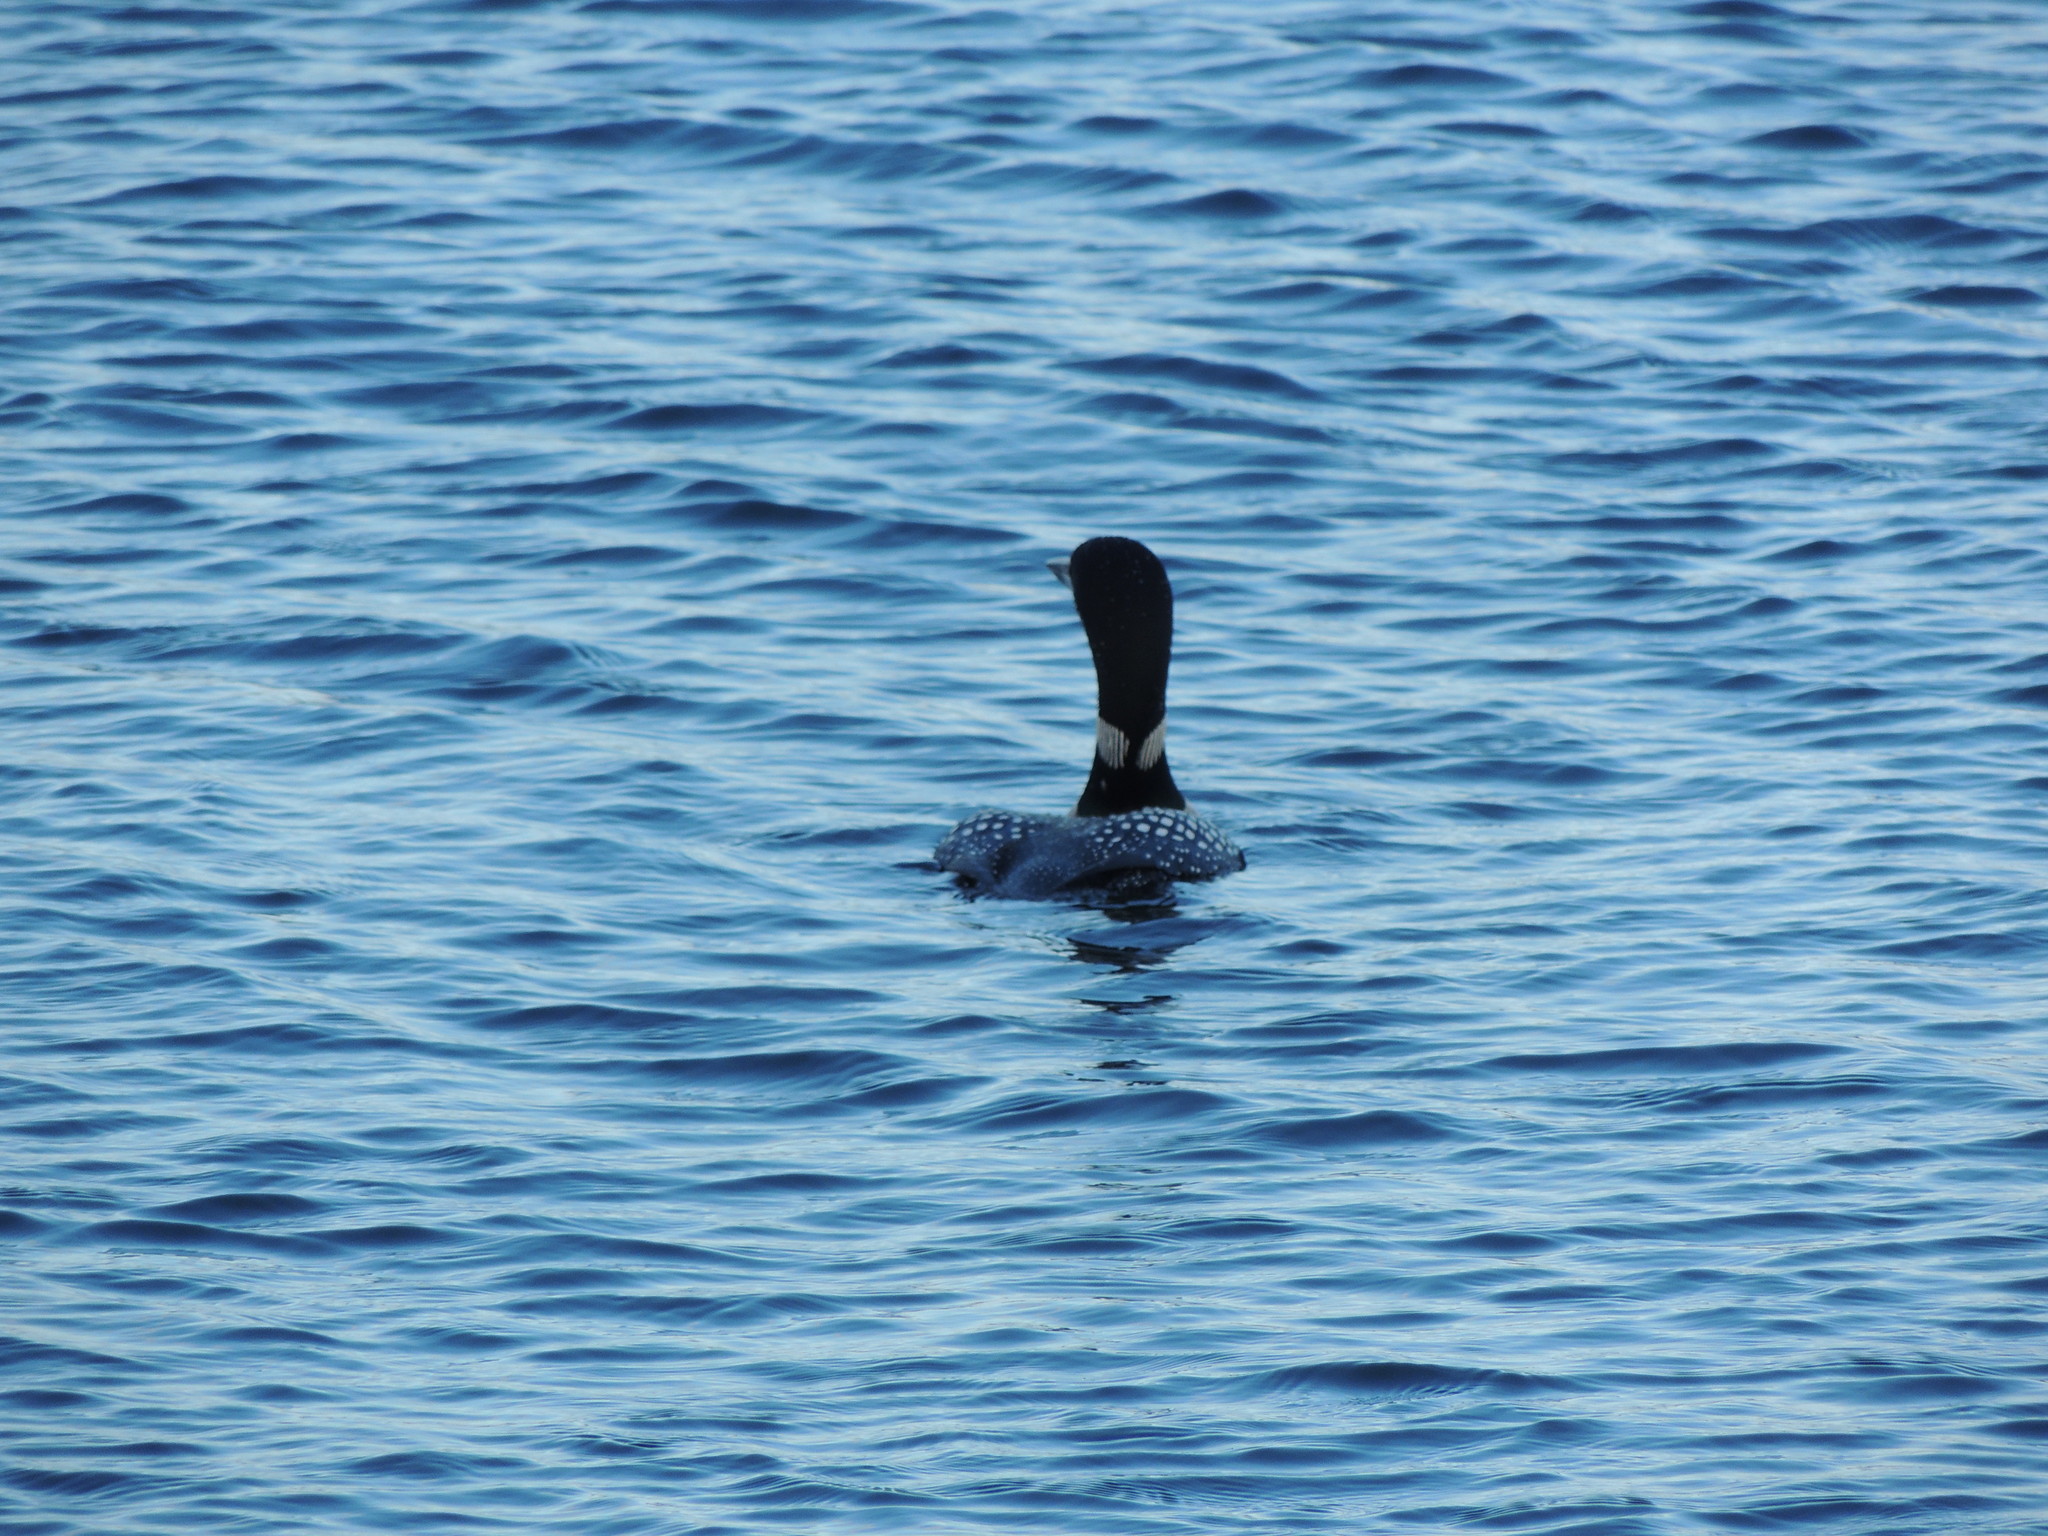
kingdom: Animalia
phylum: Chordata
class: Aves
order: Gaviiformes
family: Gaviidae
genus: Gavia
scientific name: Gavia immer
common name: Common loon
